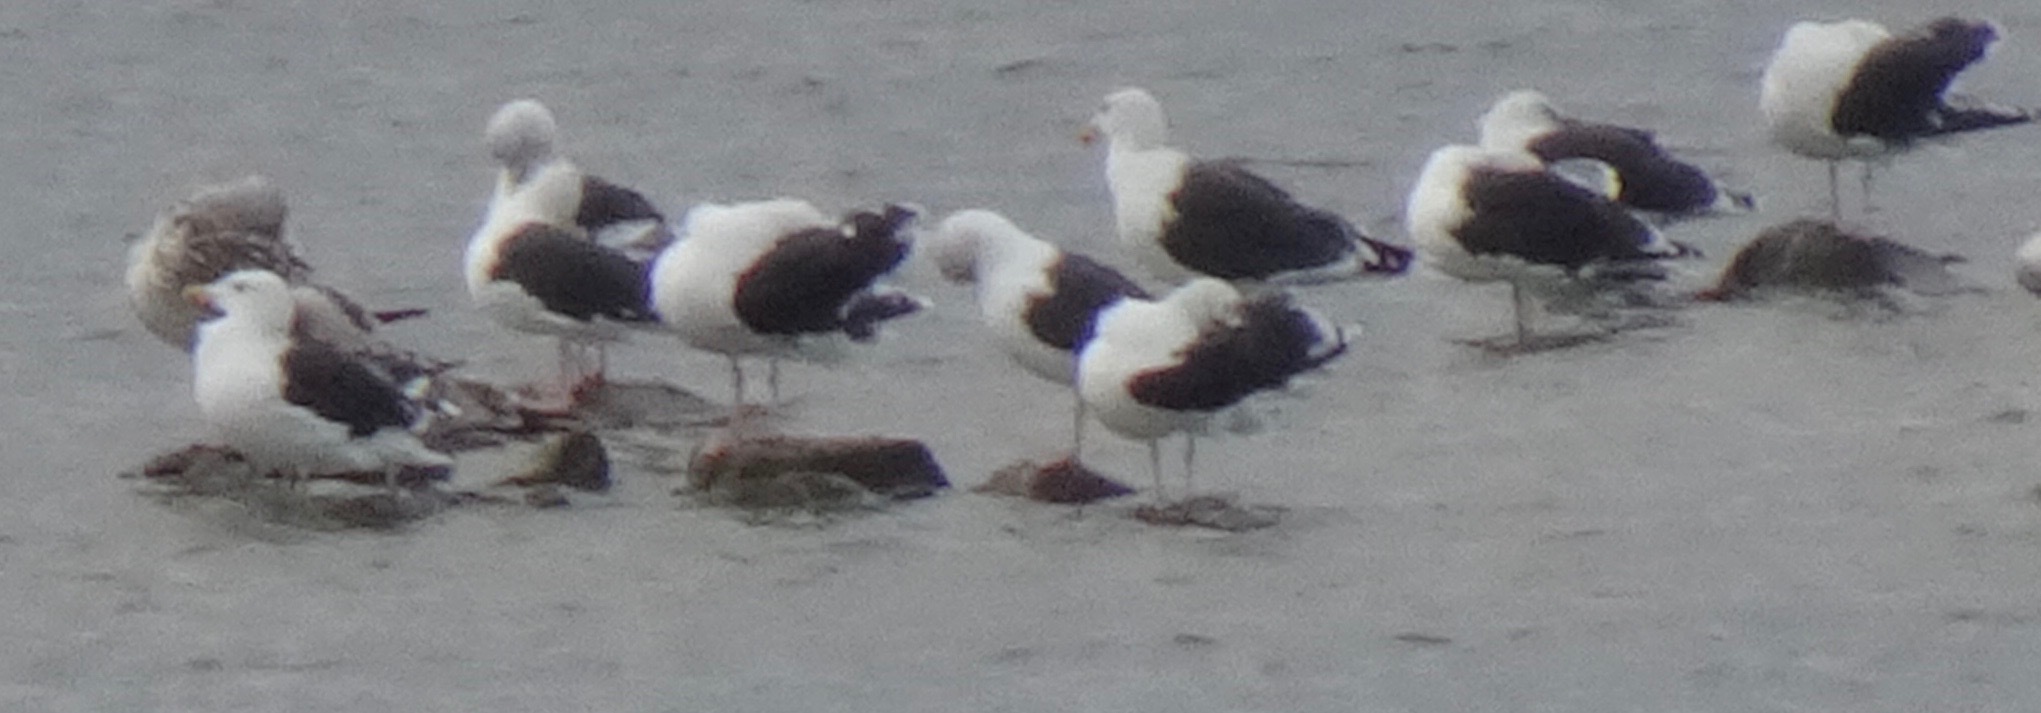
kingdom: Animalia
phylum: Chordata
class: Aves
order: Charadriiformes
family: Laridae
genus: Larus
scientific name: Larus marinus
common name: Great black-backed gull
